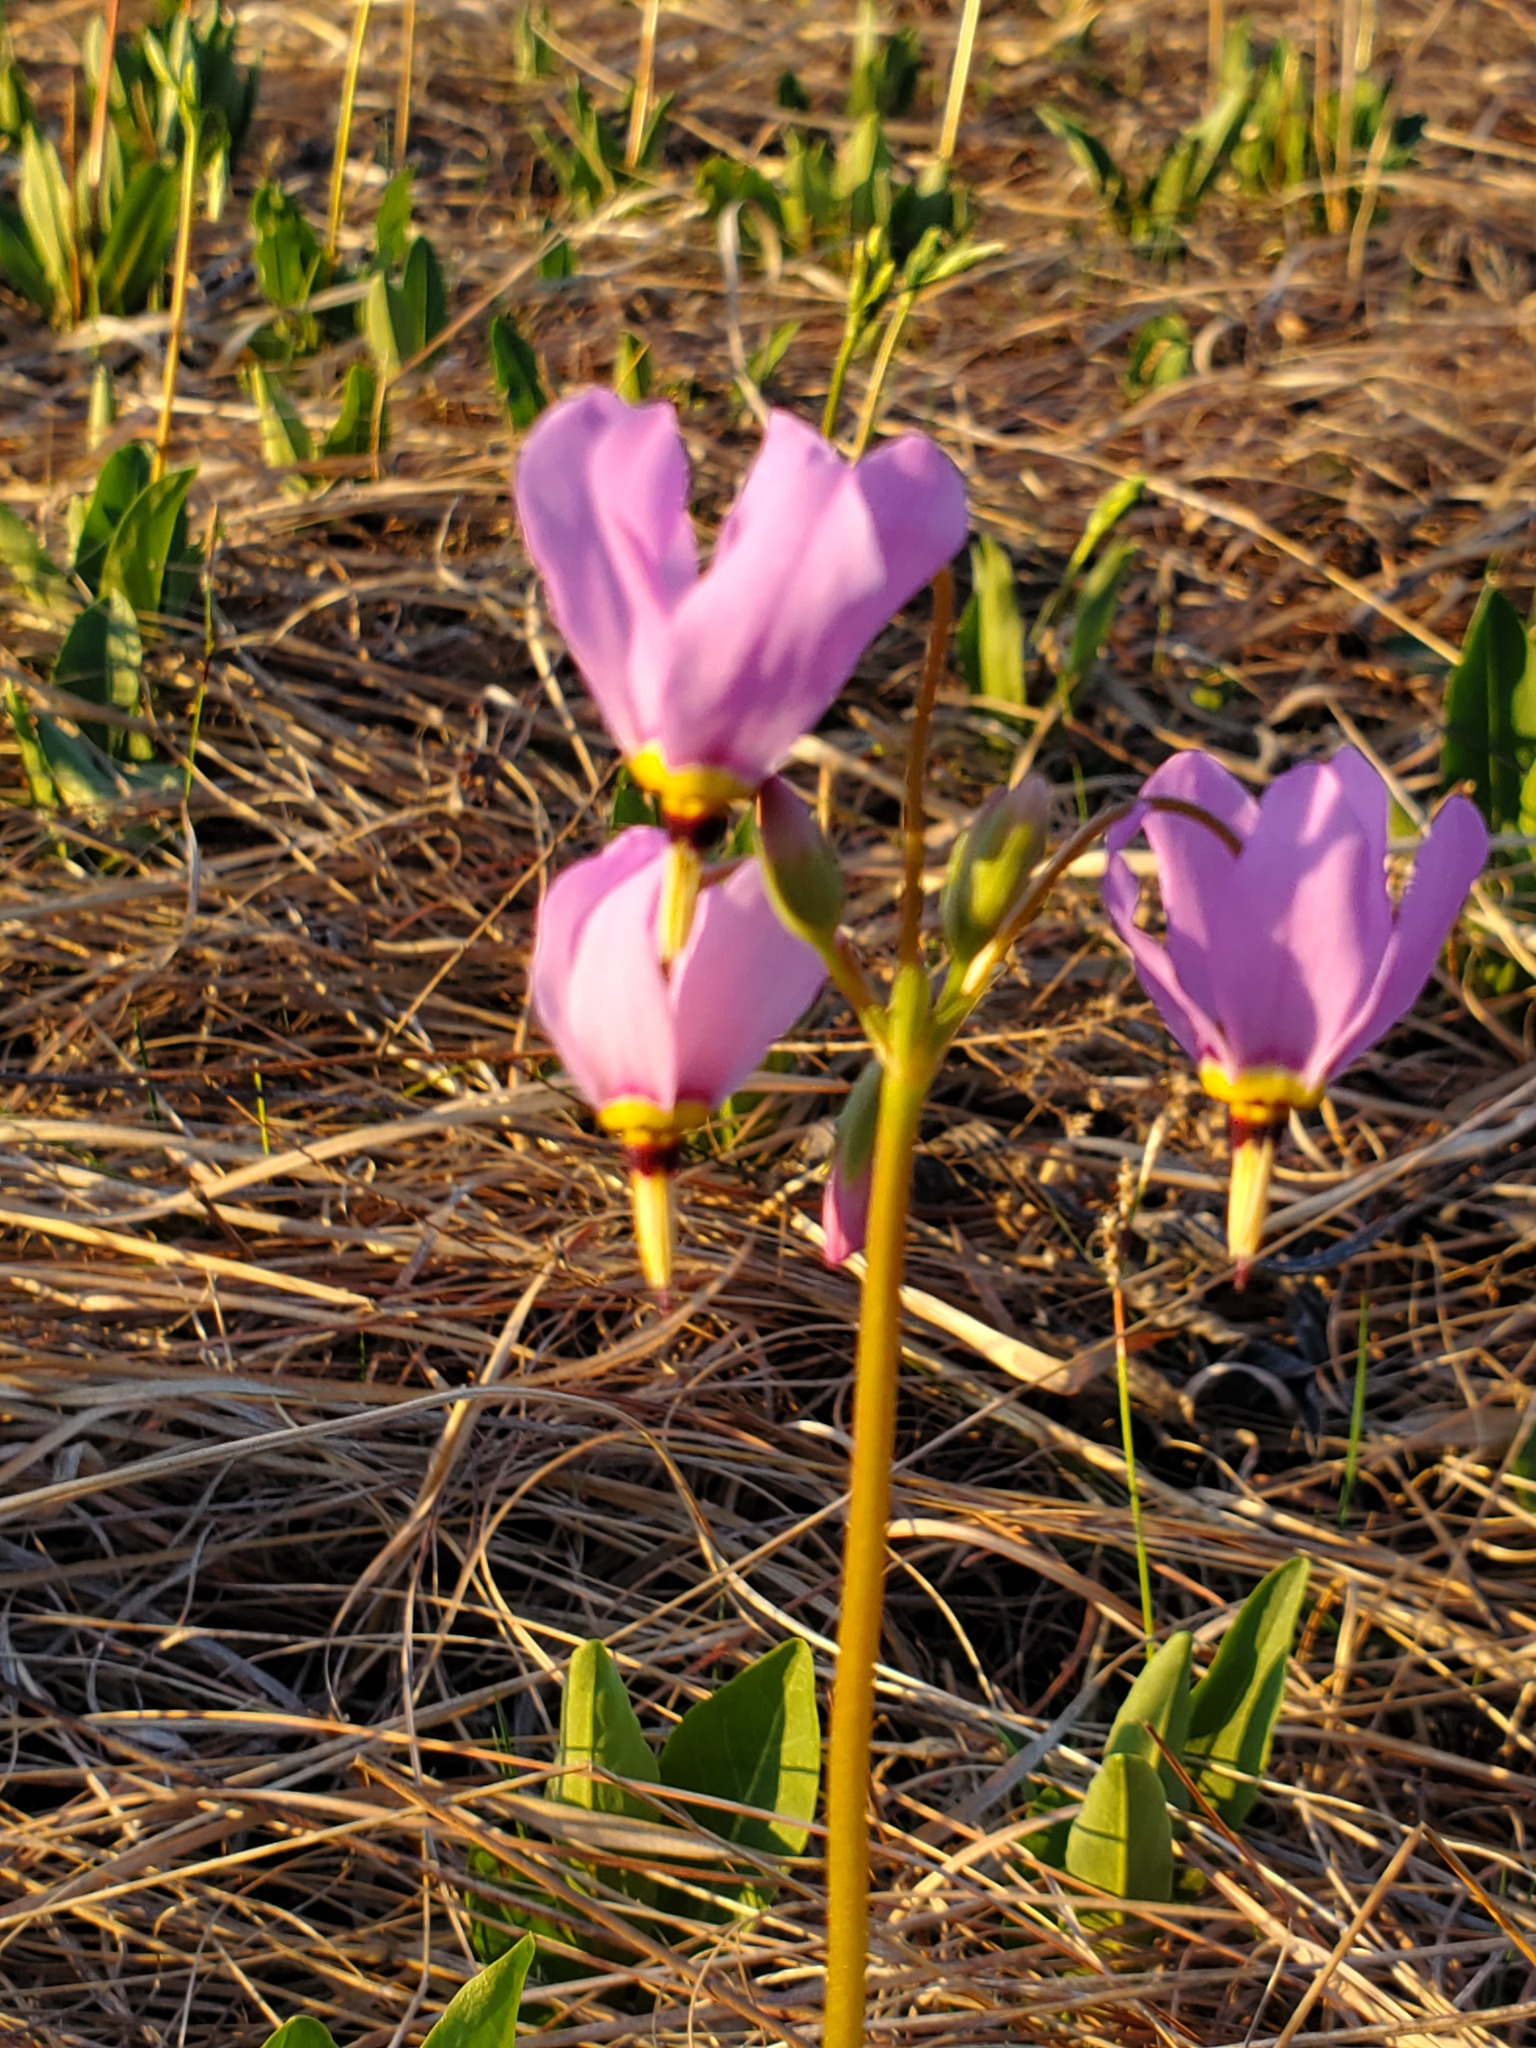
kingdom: Plantae
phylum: Tracheophyta
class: Magnoliopsida
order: Ericales
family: Primulaceae
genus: Dodecatheon
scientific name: Dodecatheon meadia
